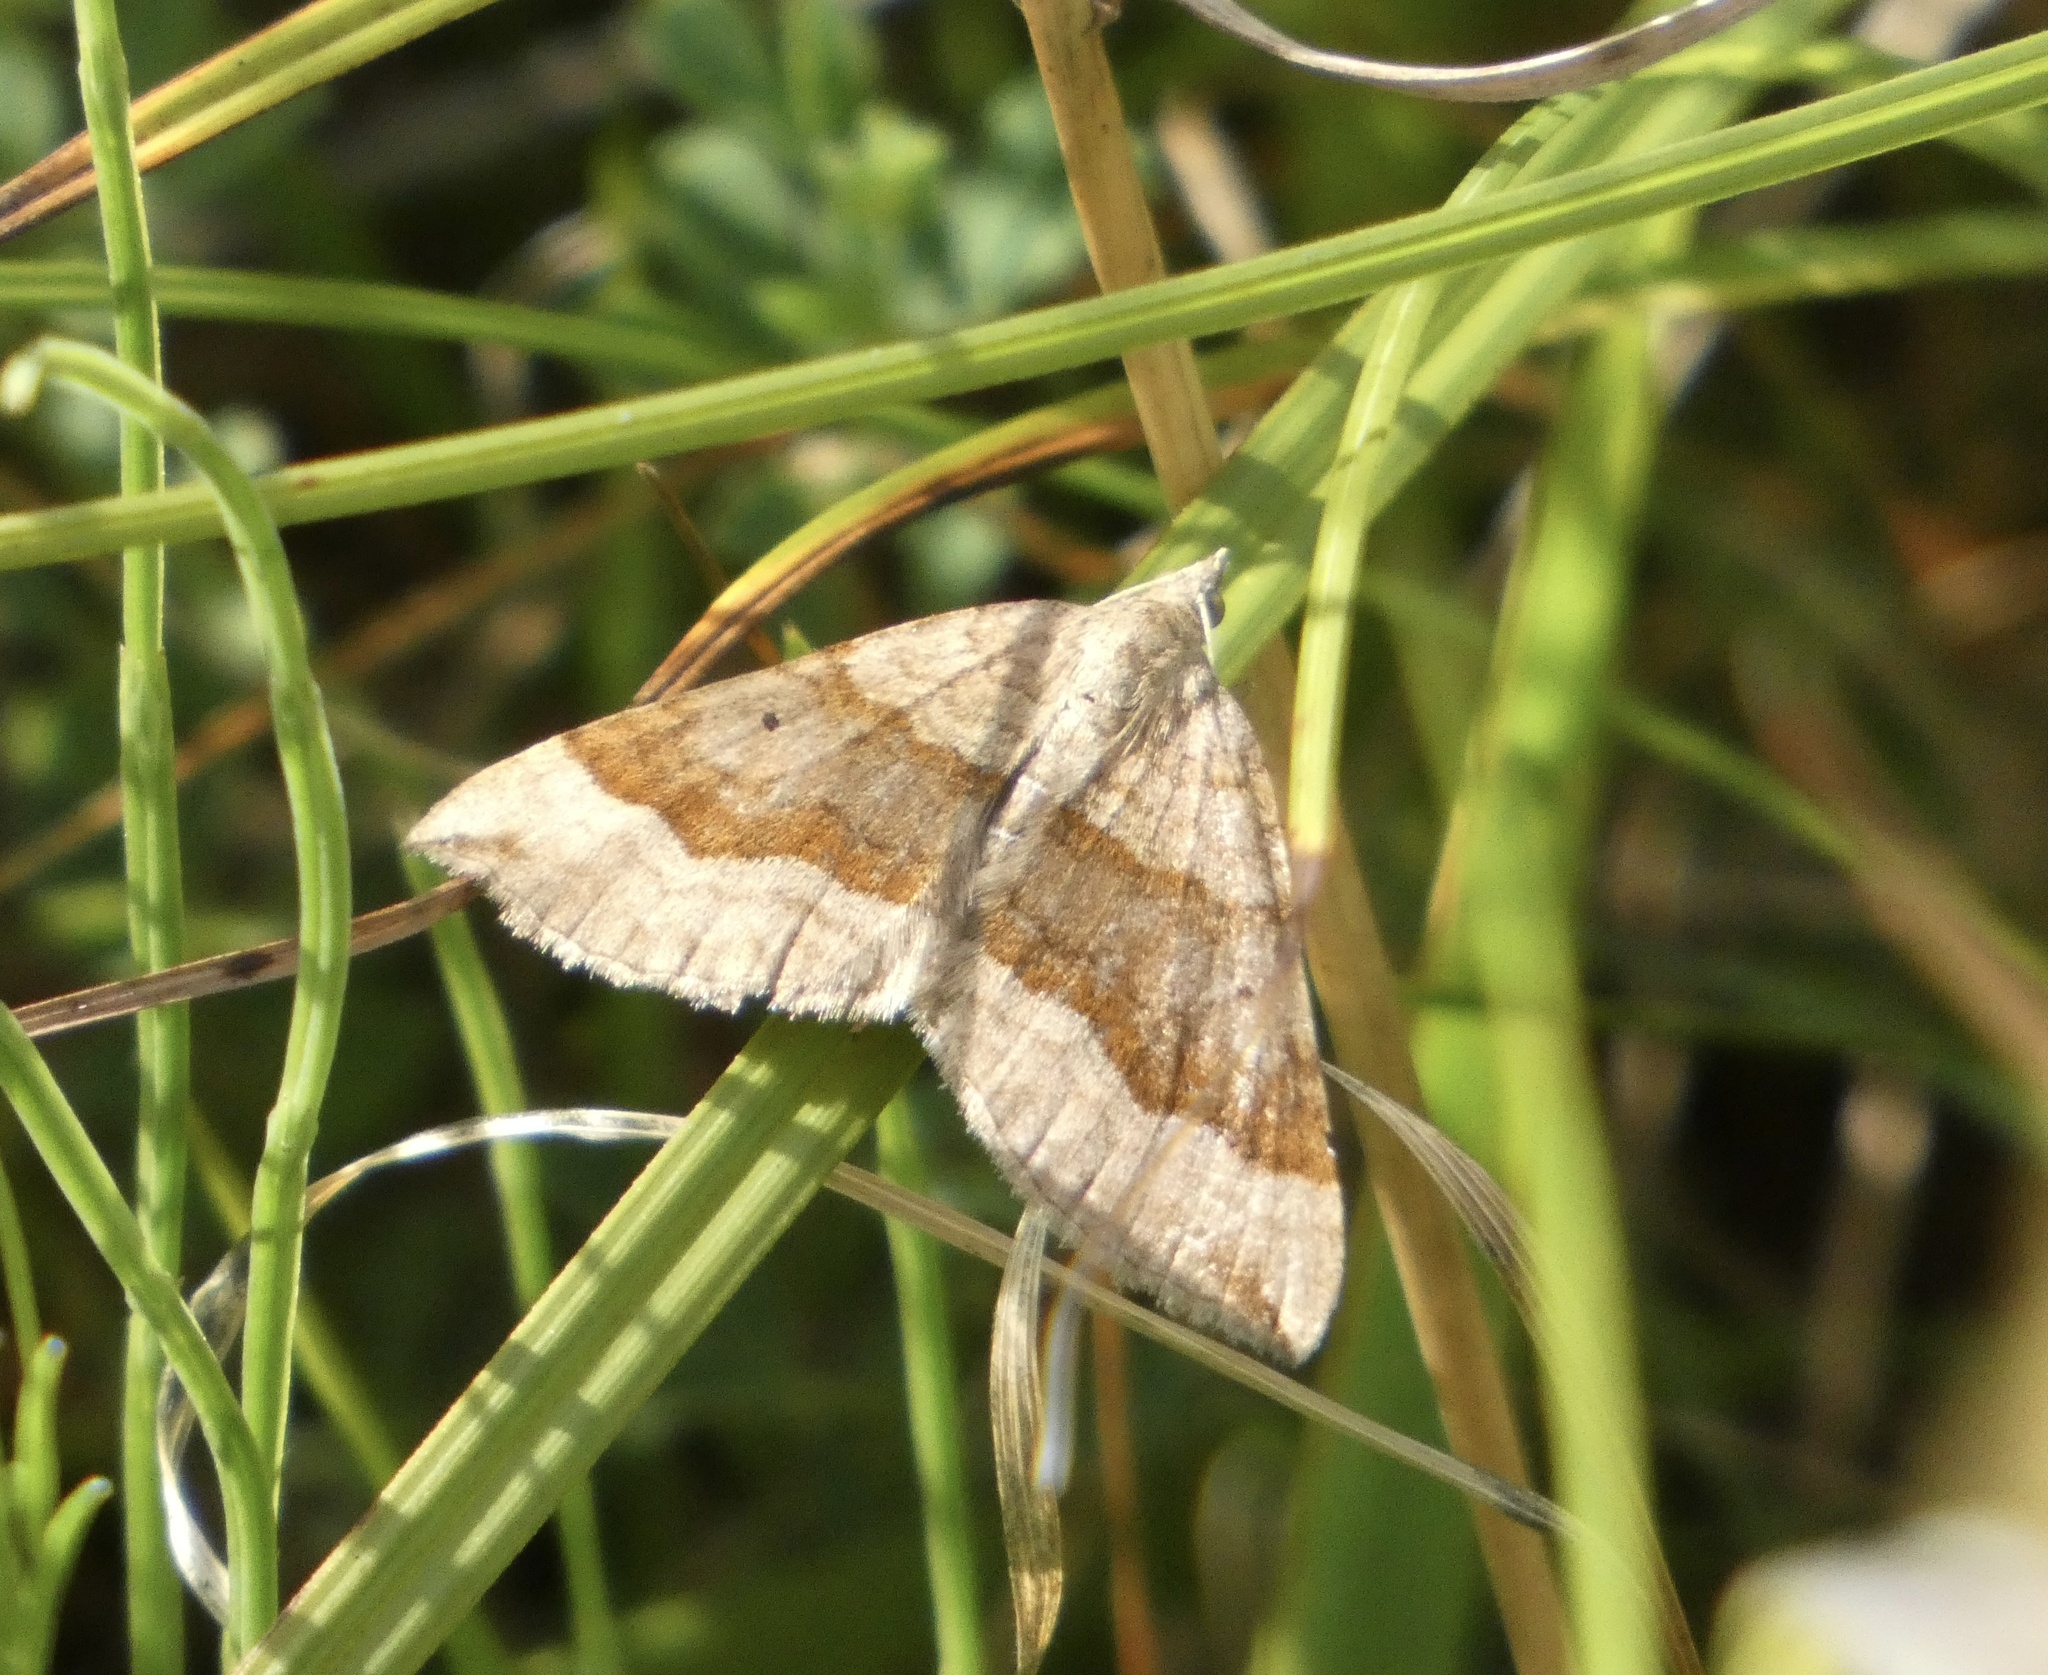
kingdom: Animalia
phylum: Arthropoda
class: Insecta
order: Lepidoptera
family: Geometridae
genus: Scotopteryx
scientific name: Scotopteryx chenopodiata
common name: Shaded broad-bar
